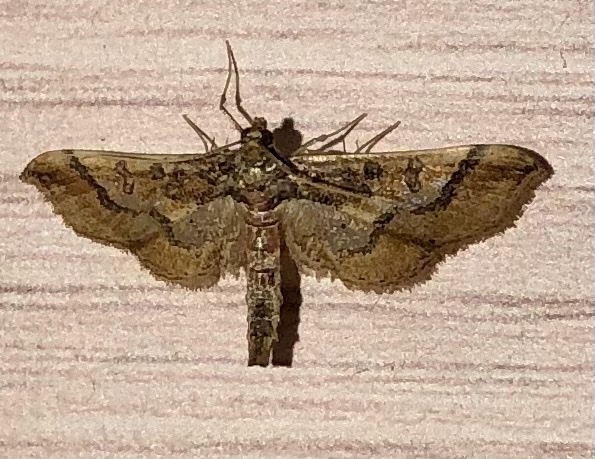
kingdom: Animalia
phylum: Arthropoda
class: Insecta
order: Lepidoptera
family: Crambidae
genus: Hydriris
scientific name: Hydriris ornatalis
